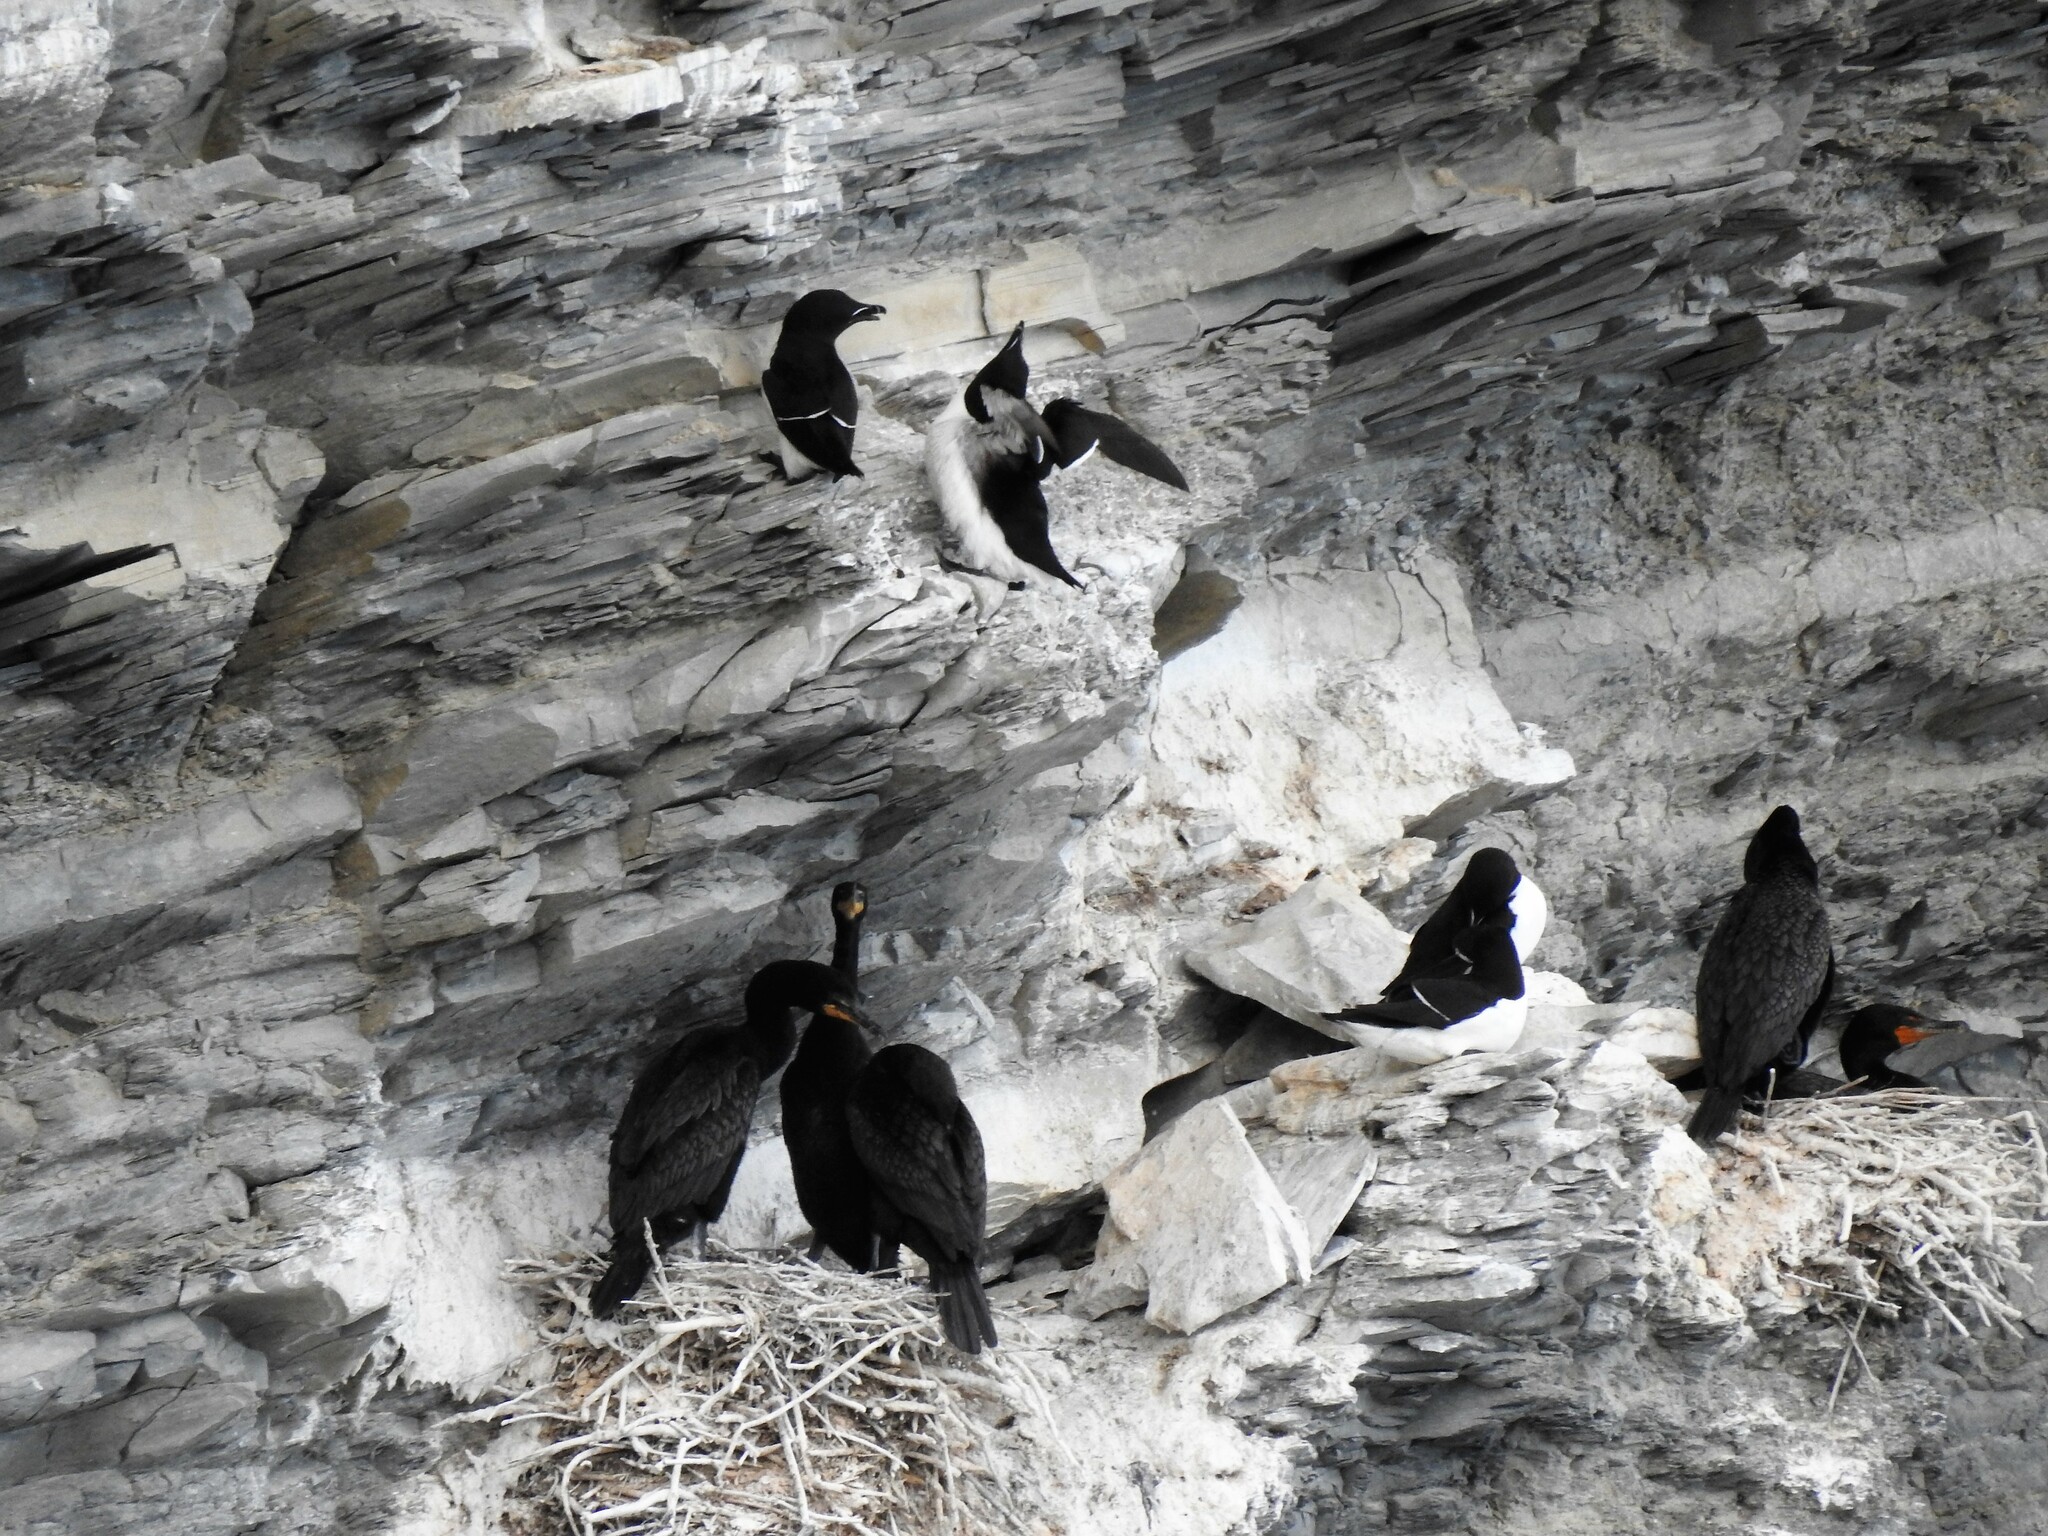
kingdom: Animalia
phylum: Chordata
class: Aves
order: Suliformes
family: Phalacrocoracidae
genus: Phalacrocorax
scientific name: Phalacrocorax auritus
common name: Double-crested cormorant
